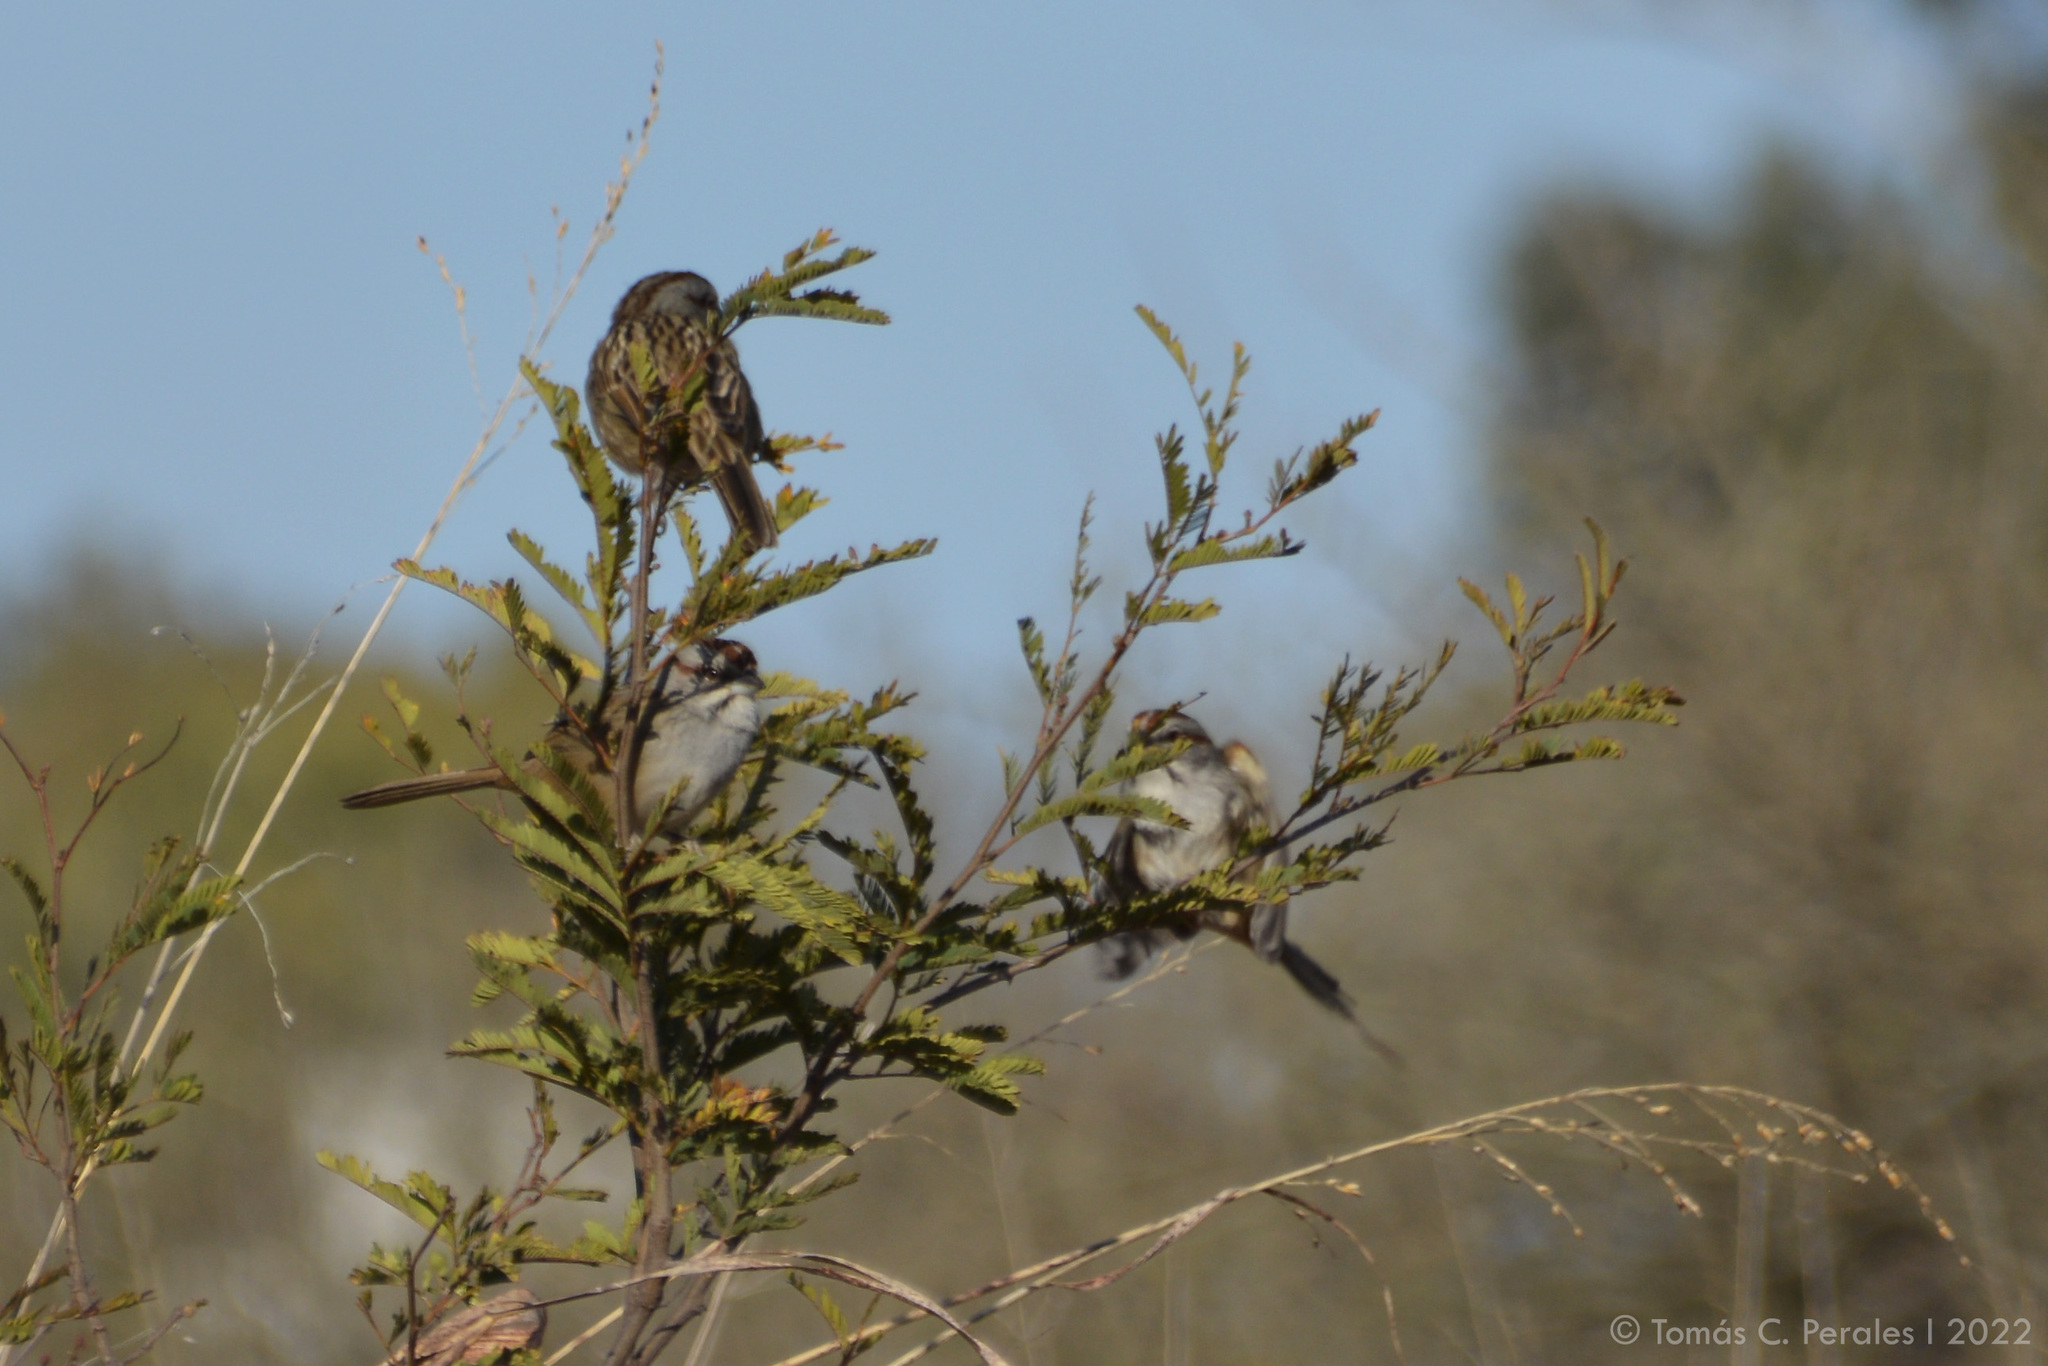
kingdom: Animalia
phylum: Chordata
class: Aves
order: Passeriformes
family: Passerellidae
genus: Rhynchospiza
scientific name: Rhynchospiza strigiceps
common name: Stripe-capped sparrow
